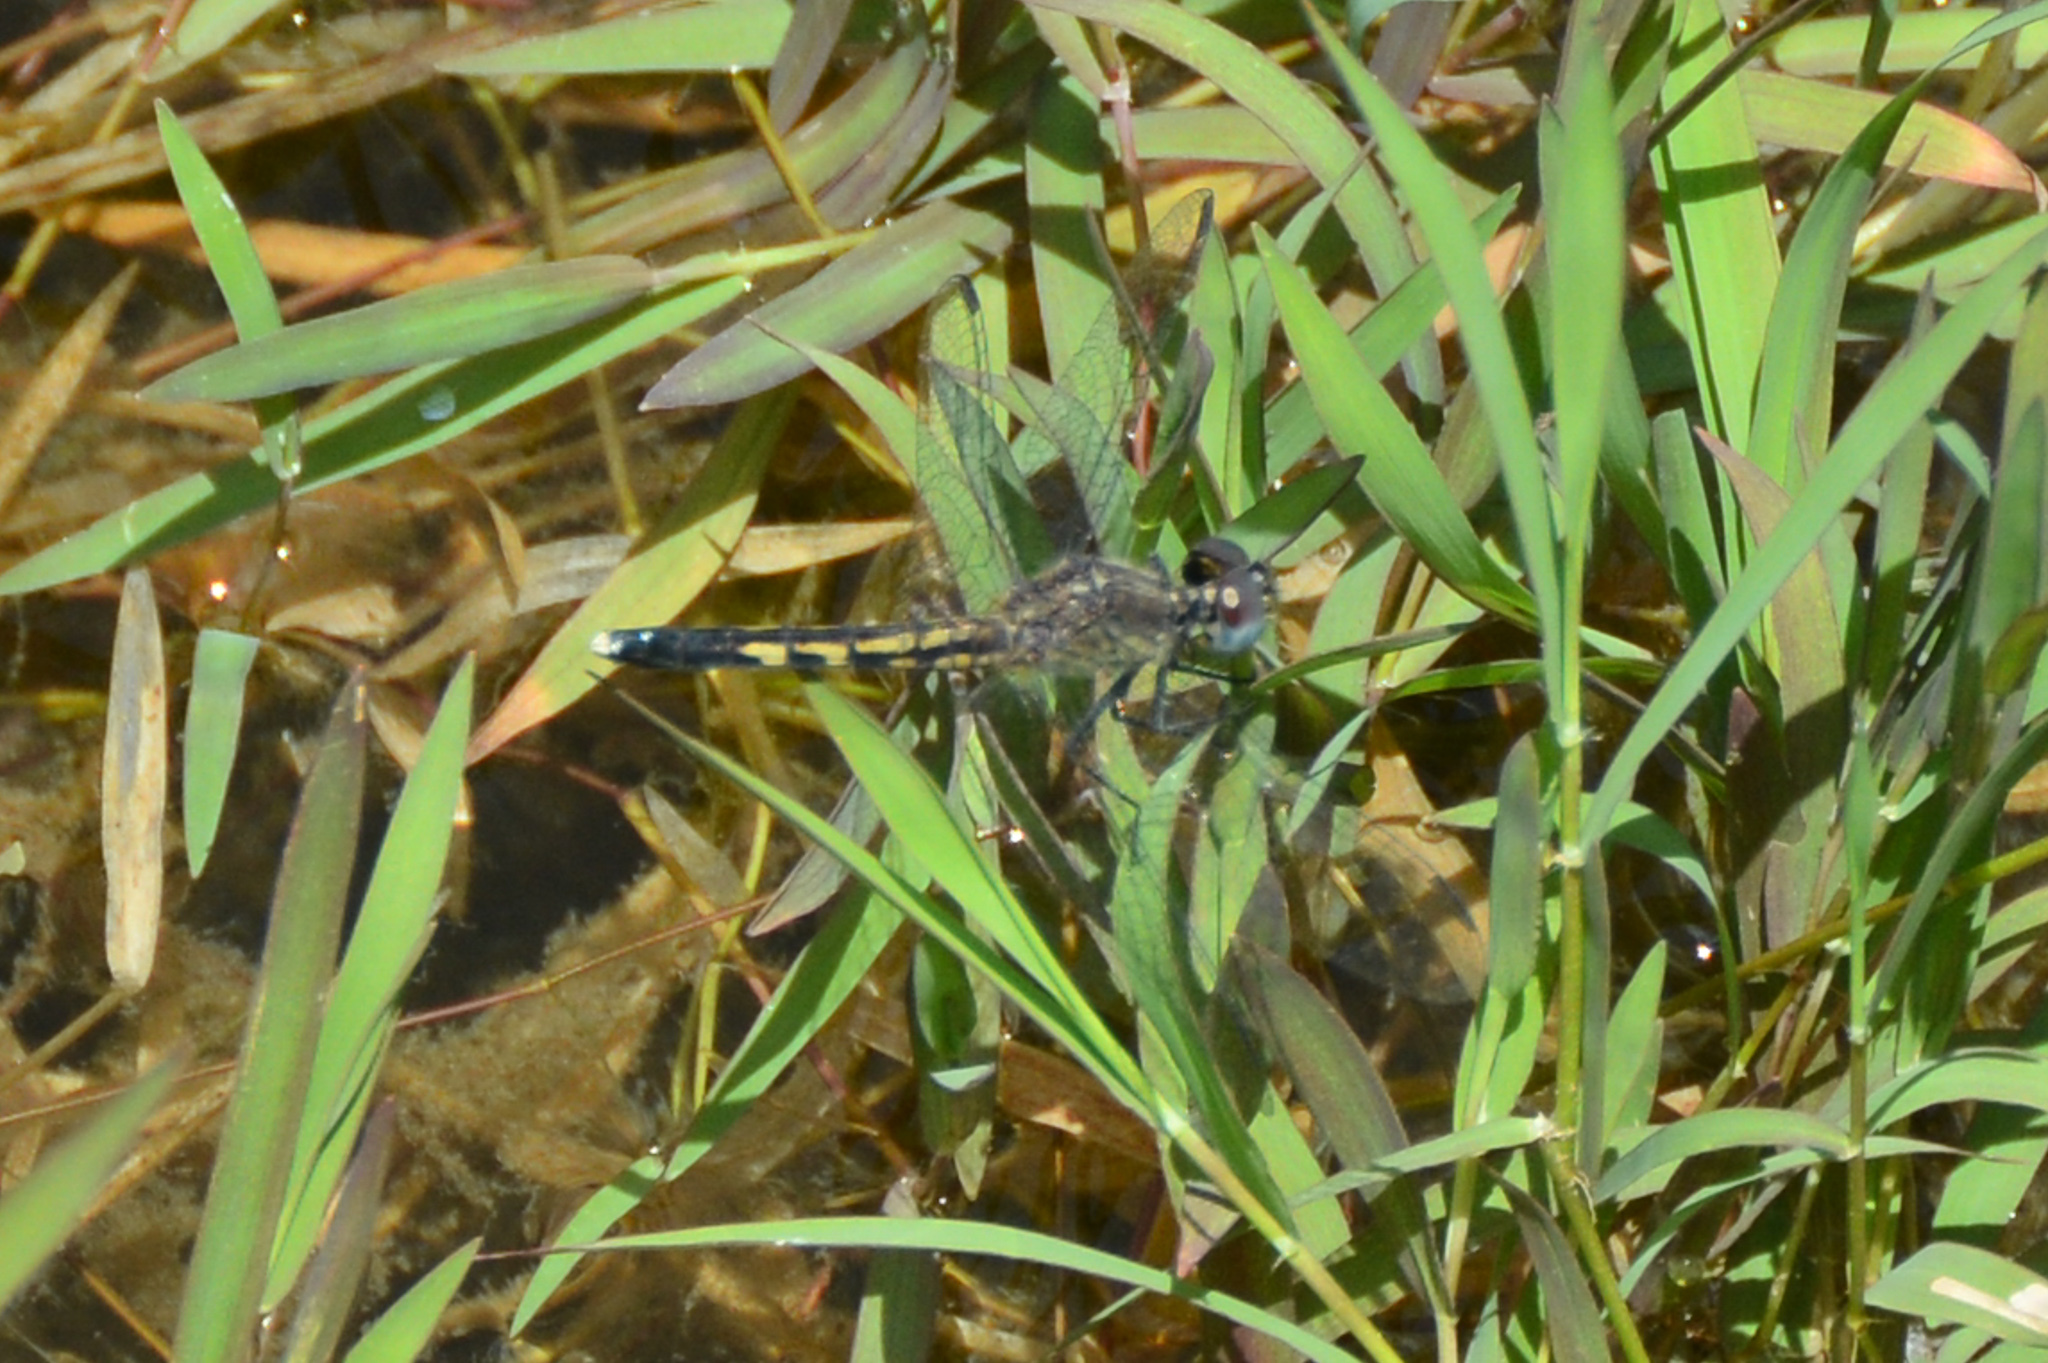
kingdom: Animalia
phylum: Arthropoda
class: Insecta
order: Odonata
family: Libellulidae
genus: Erythrodiplax
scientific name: Erythrodiplax minuscula
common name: Little blue dragonlet
